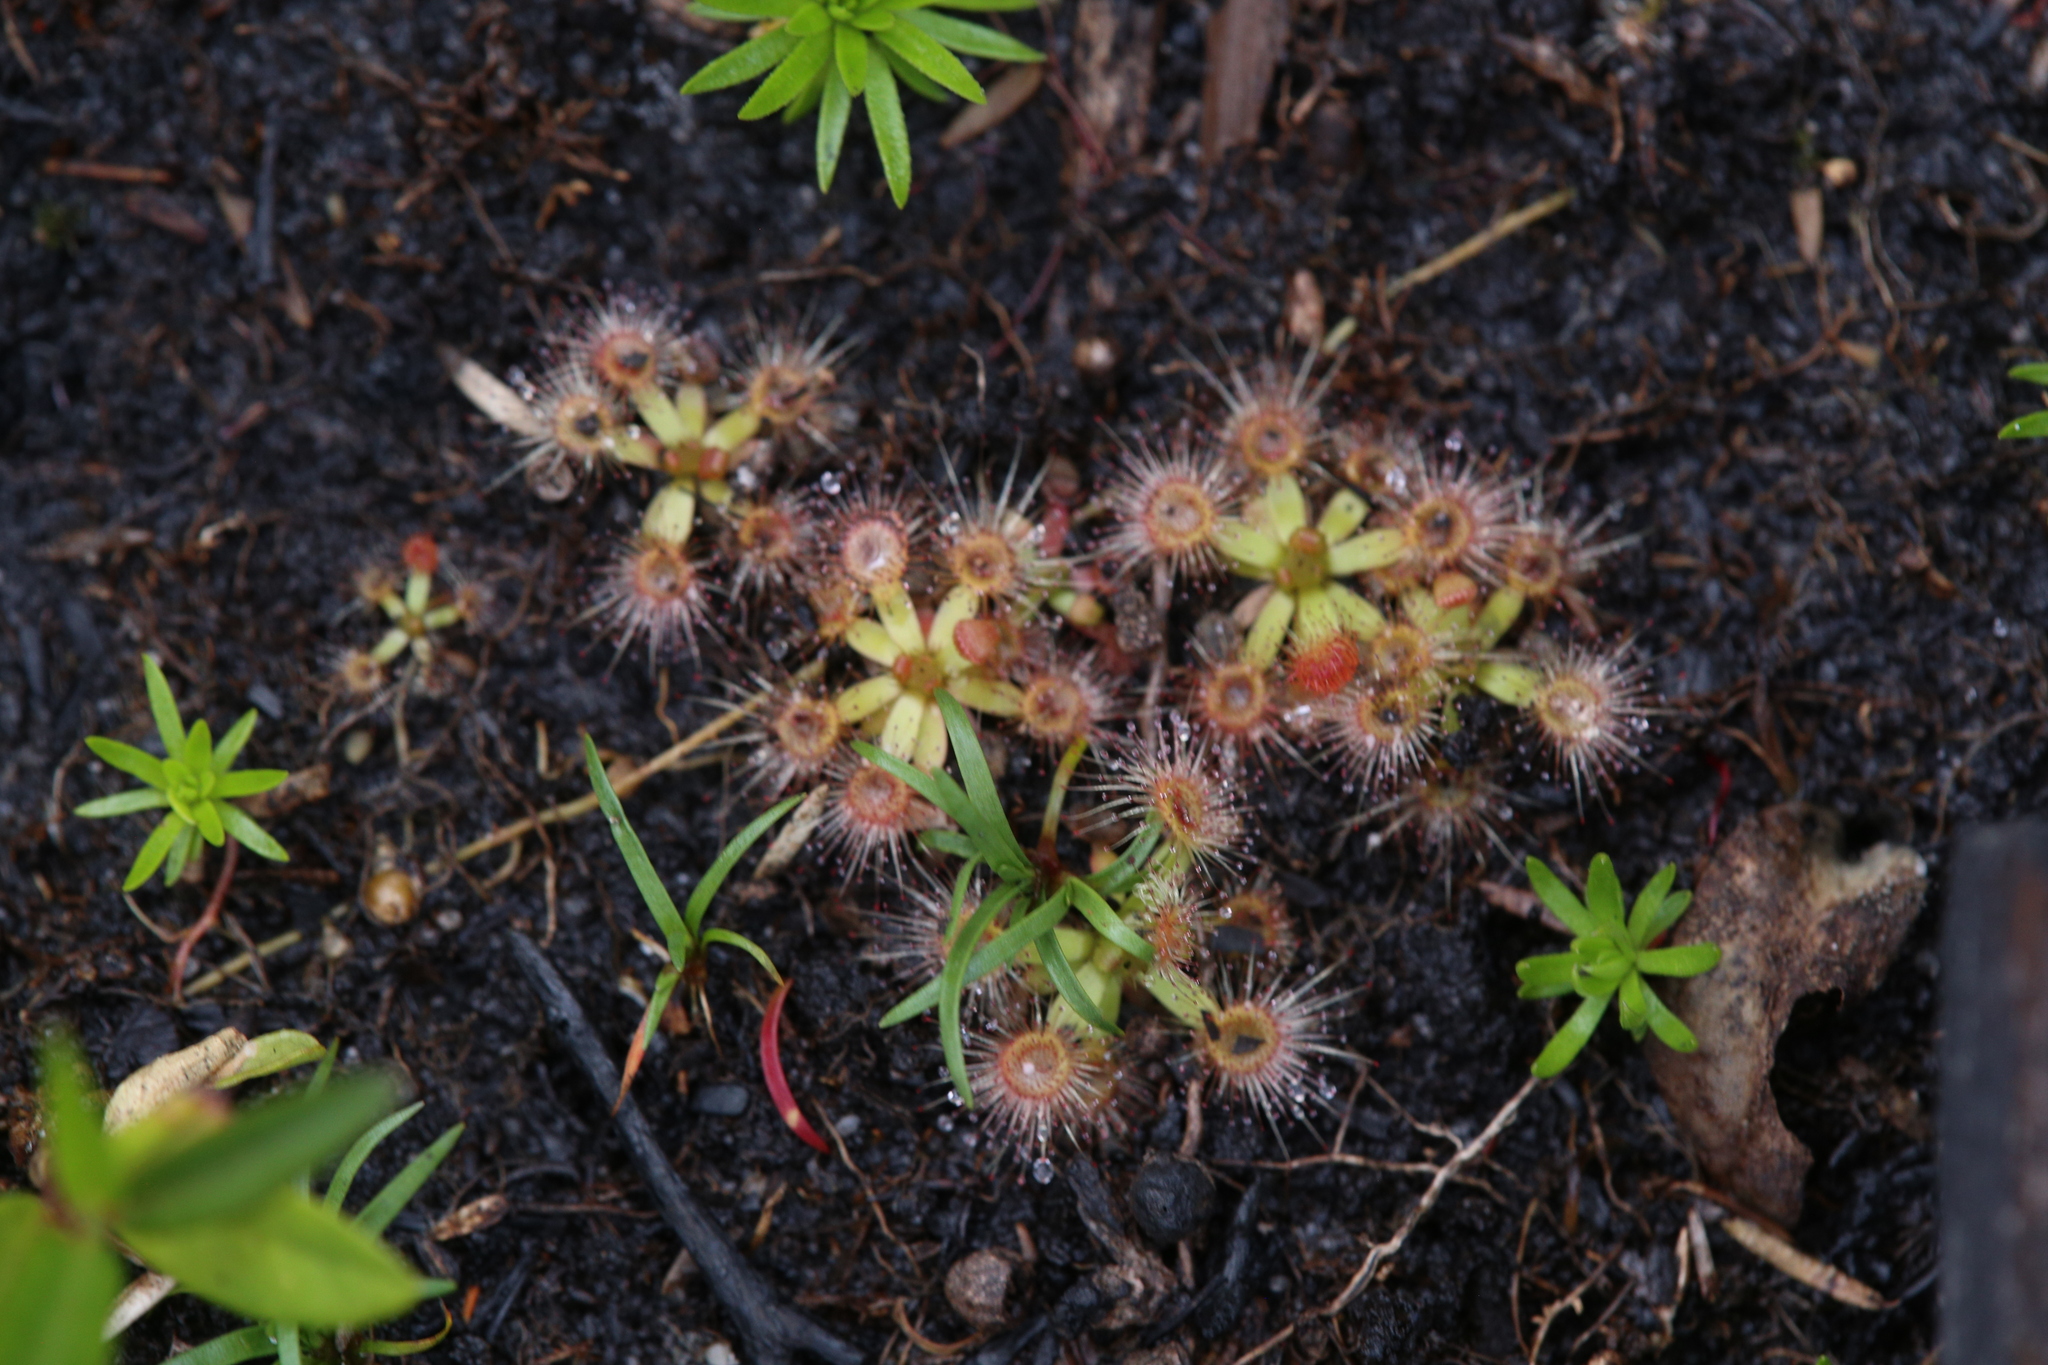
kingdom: Plantae
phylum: Tracheophyta
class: Magnoliopsida
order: Caryophyllales
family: Droseraceae
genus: Drosera
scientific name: Drosera pulchella
